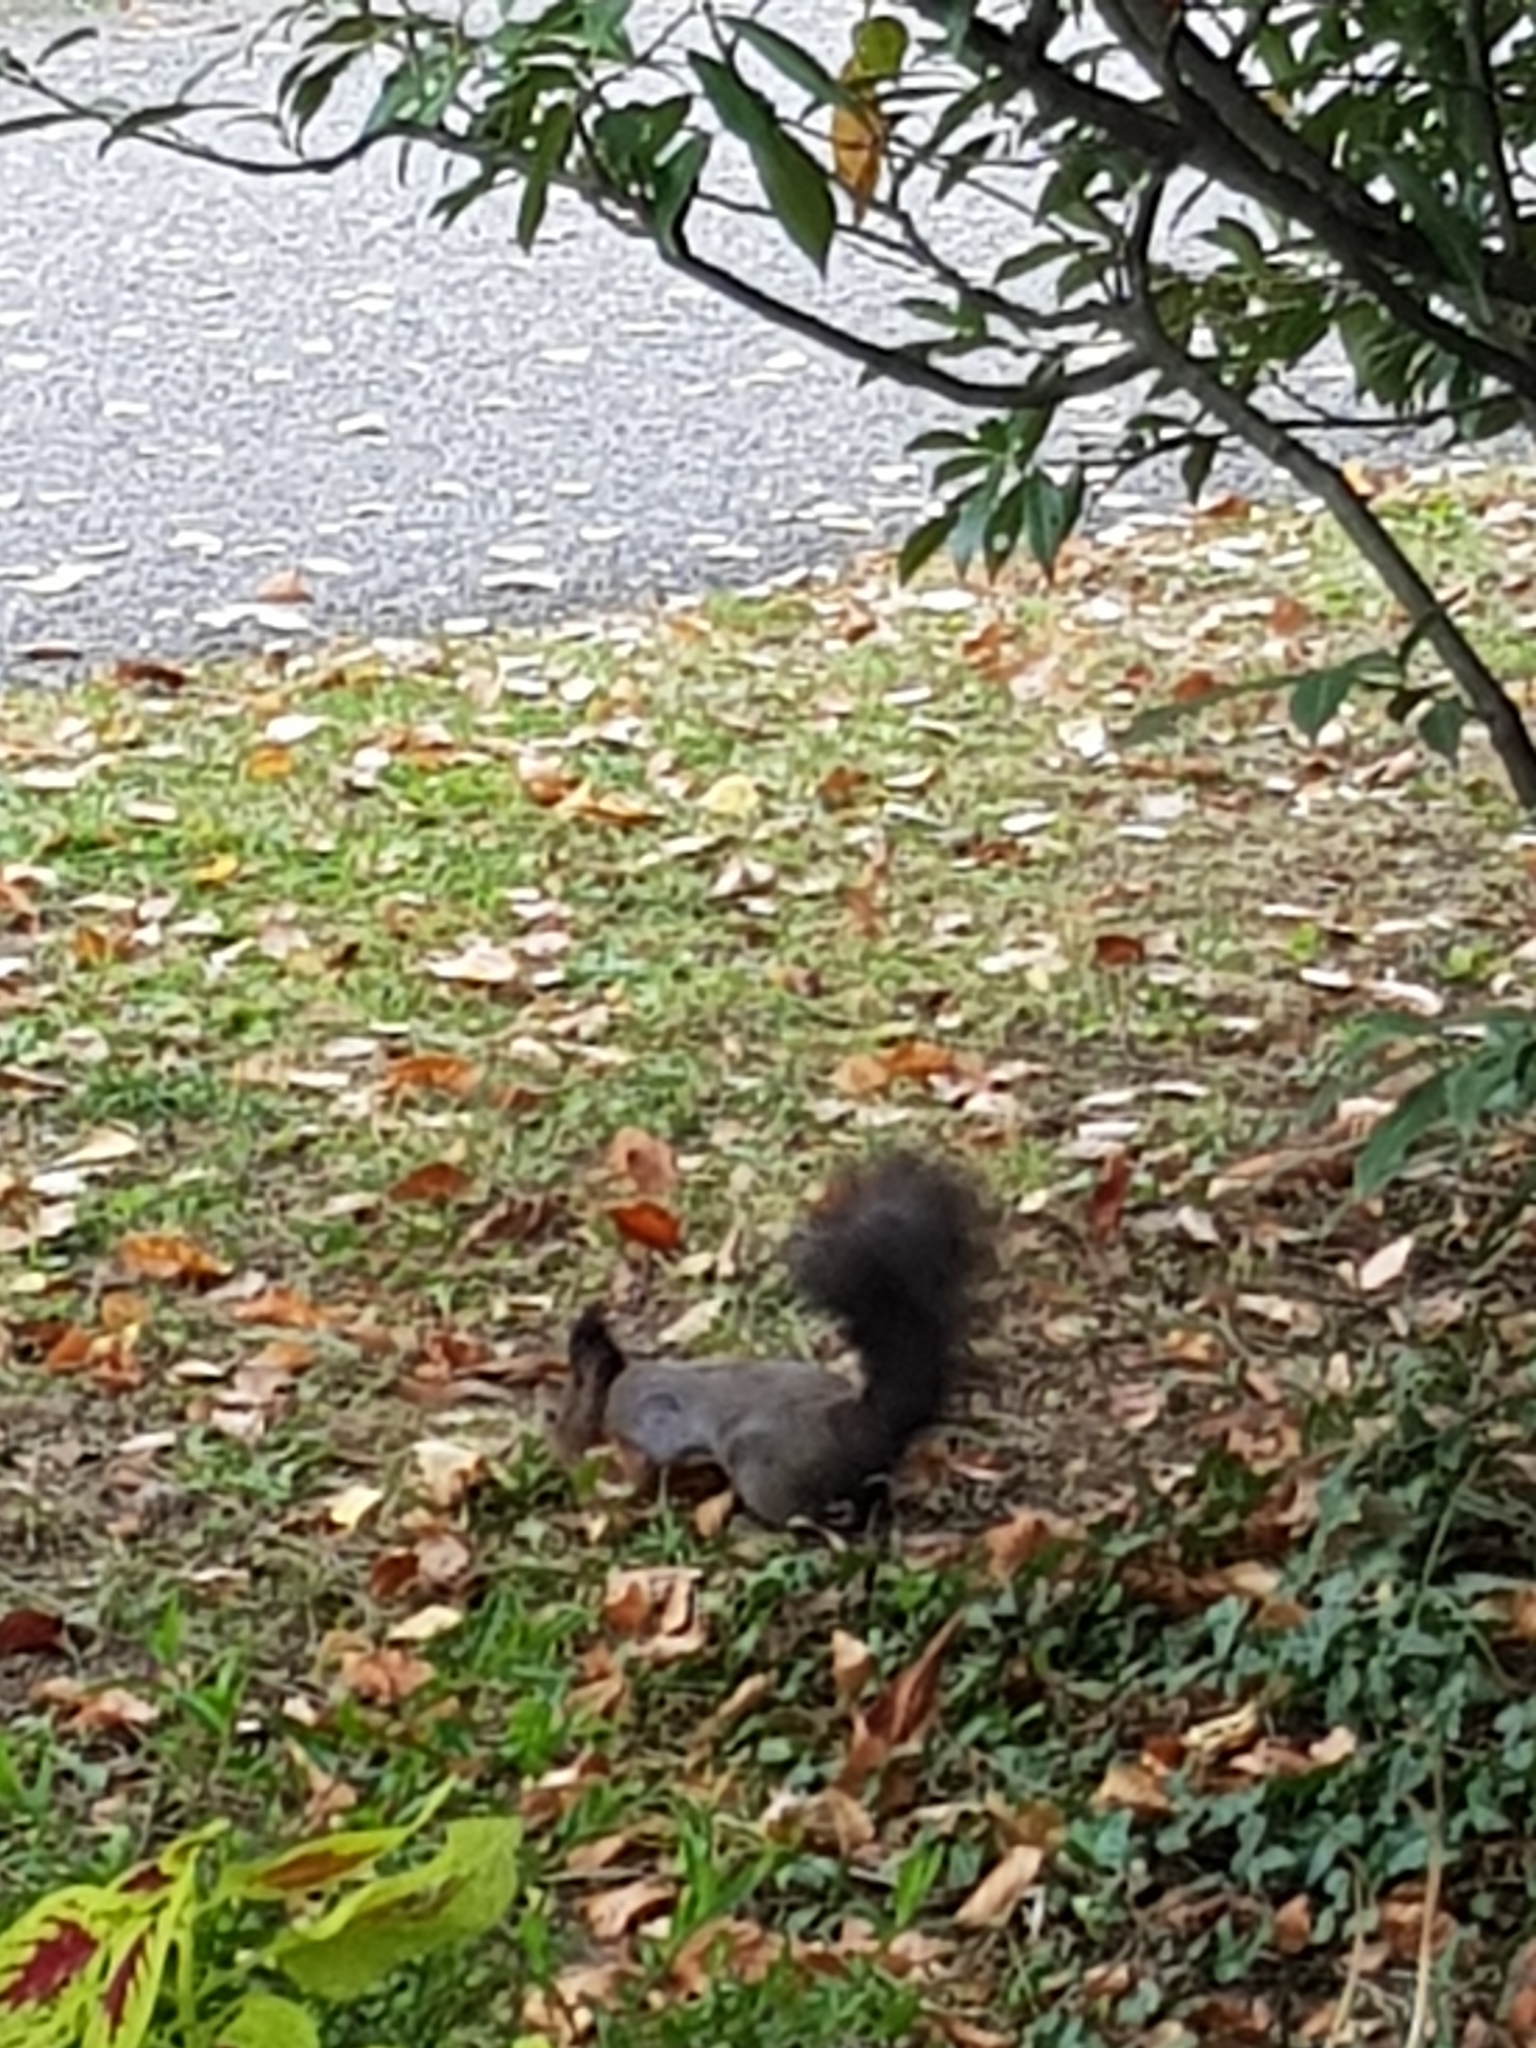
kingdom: Animalia
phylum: Chordata
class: Mammalia
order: Rodentia
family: Sciuridae
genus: Sciurus
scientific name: Sciurus vulgaris
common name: Eurasian red squirrel
